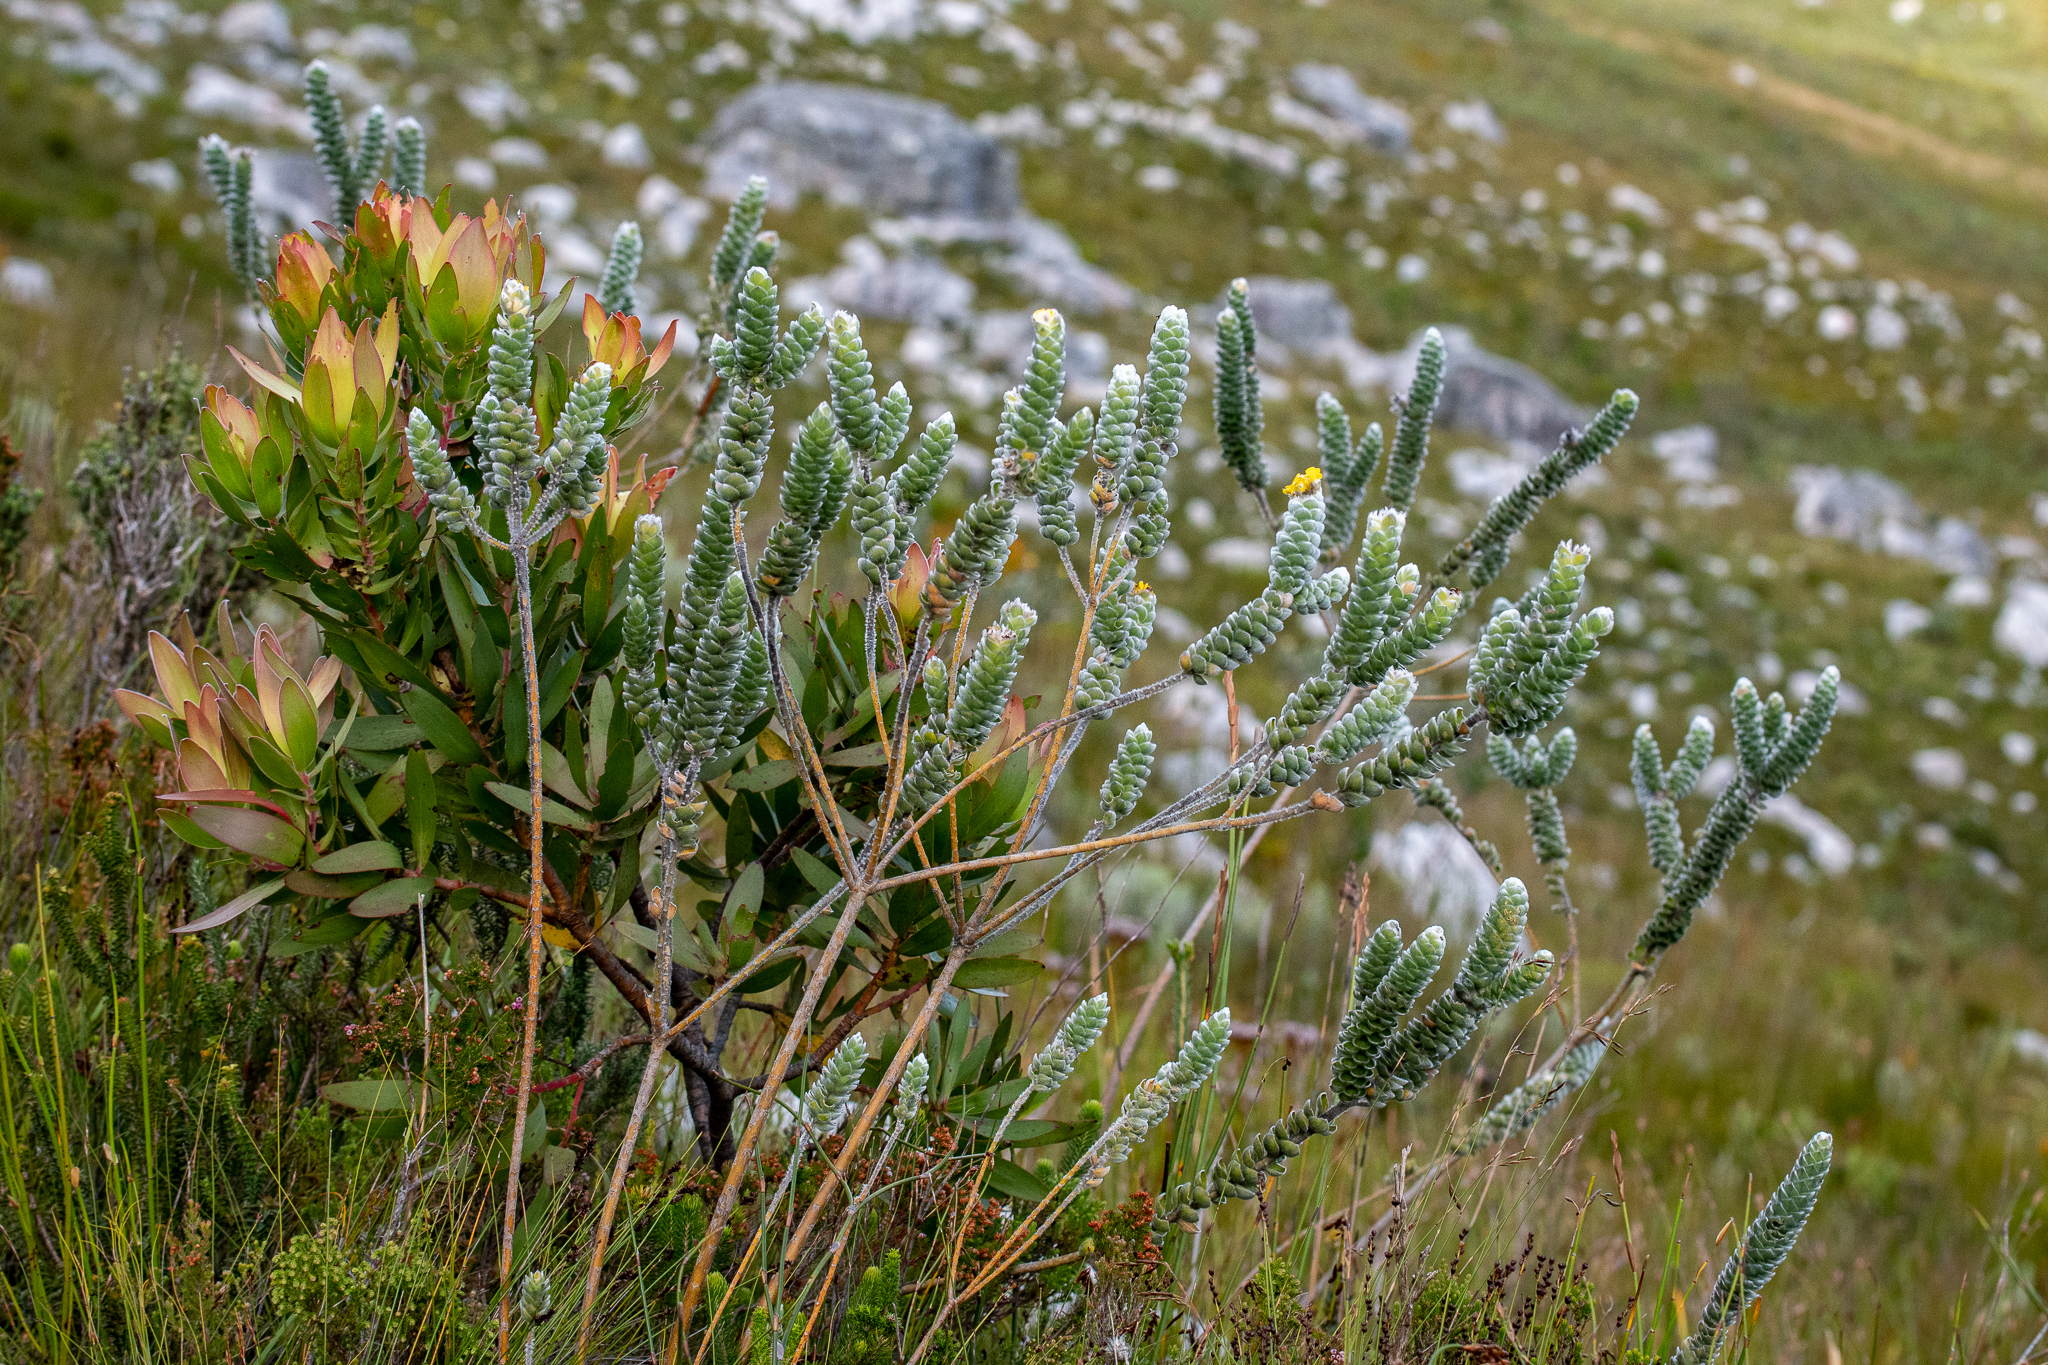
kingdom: Plantae
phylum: Tracheophyta
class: Magnoliopsida
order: Fabales
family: Fabaceae
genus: Liparia
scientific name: Liparia vestita
